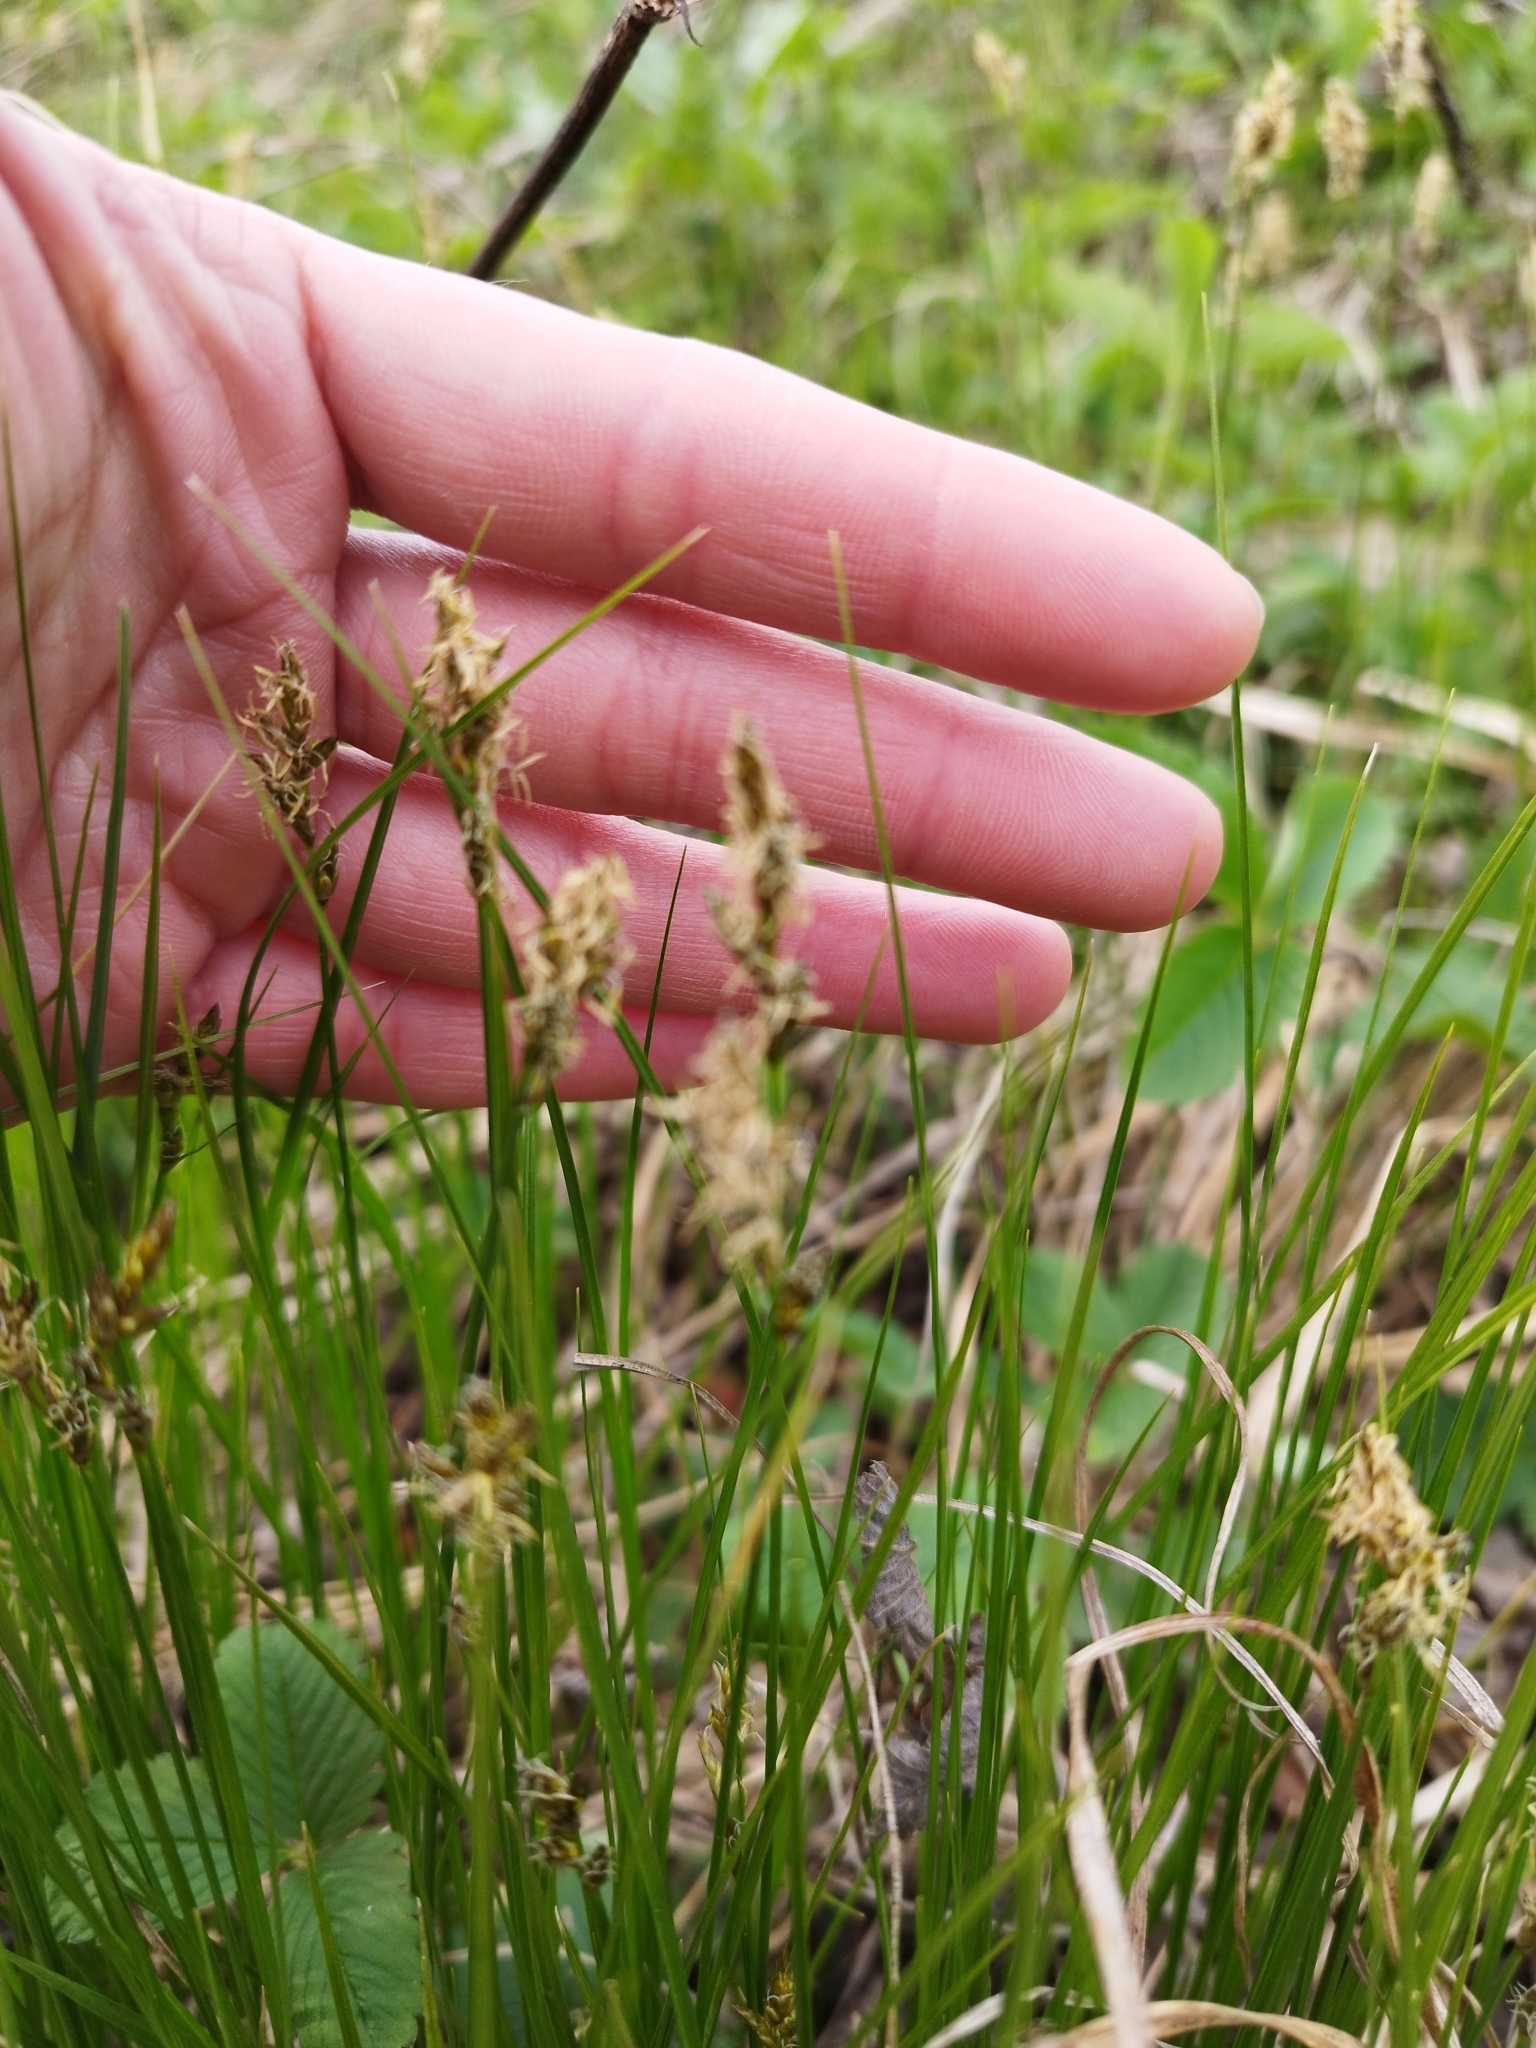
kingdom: Plantae
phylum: Tracheophyta
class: Liliopsida
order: Poales
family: Cyperaceae
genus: Carex
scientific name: Carex praecox
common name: Early sedge
